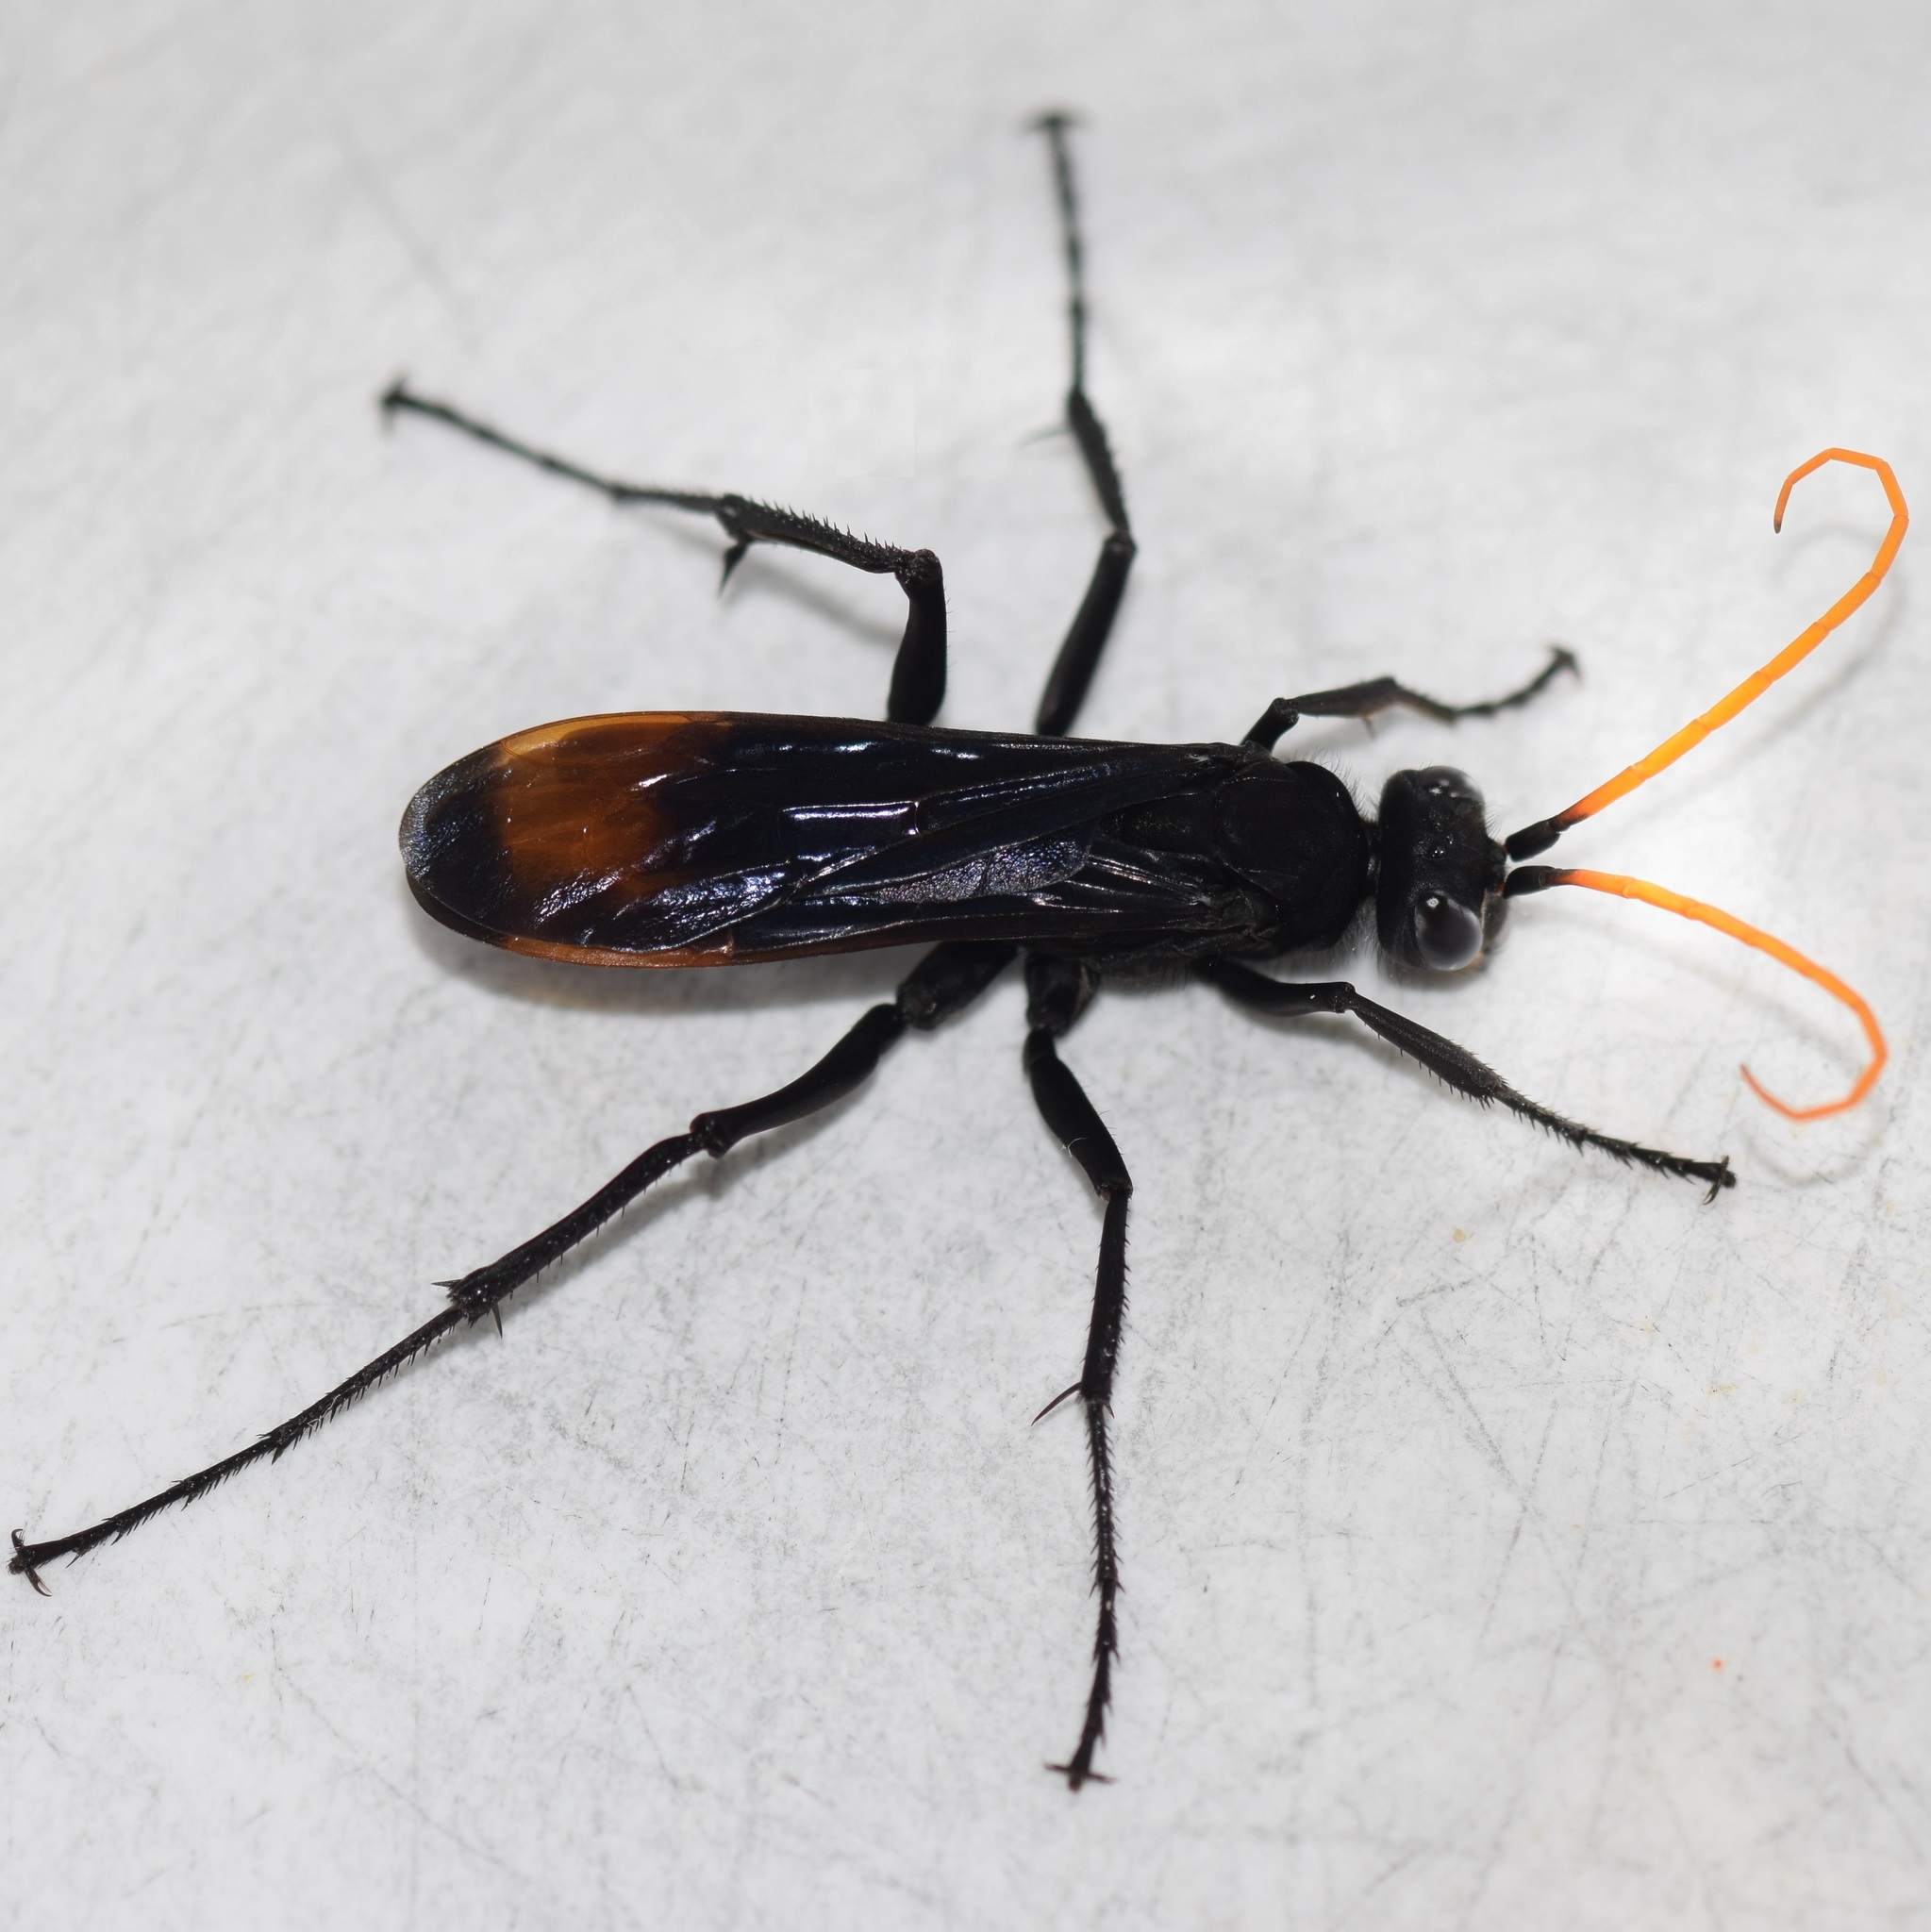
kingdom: Animalia
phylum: Arthropoda
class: Insecta
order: Hymenoptera
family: Pompilidae
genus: Entypus
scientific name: Entypus unifasciatus
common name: Eastern tawny-horned spider wasp
